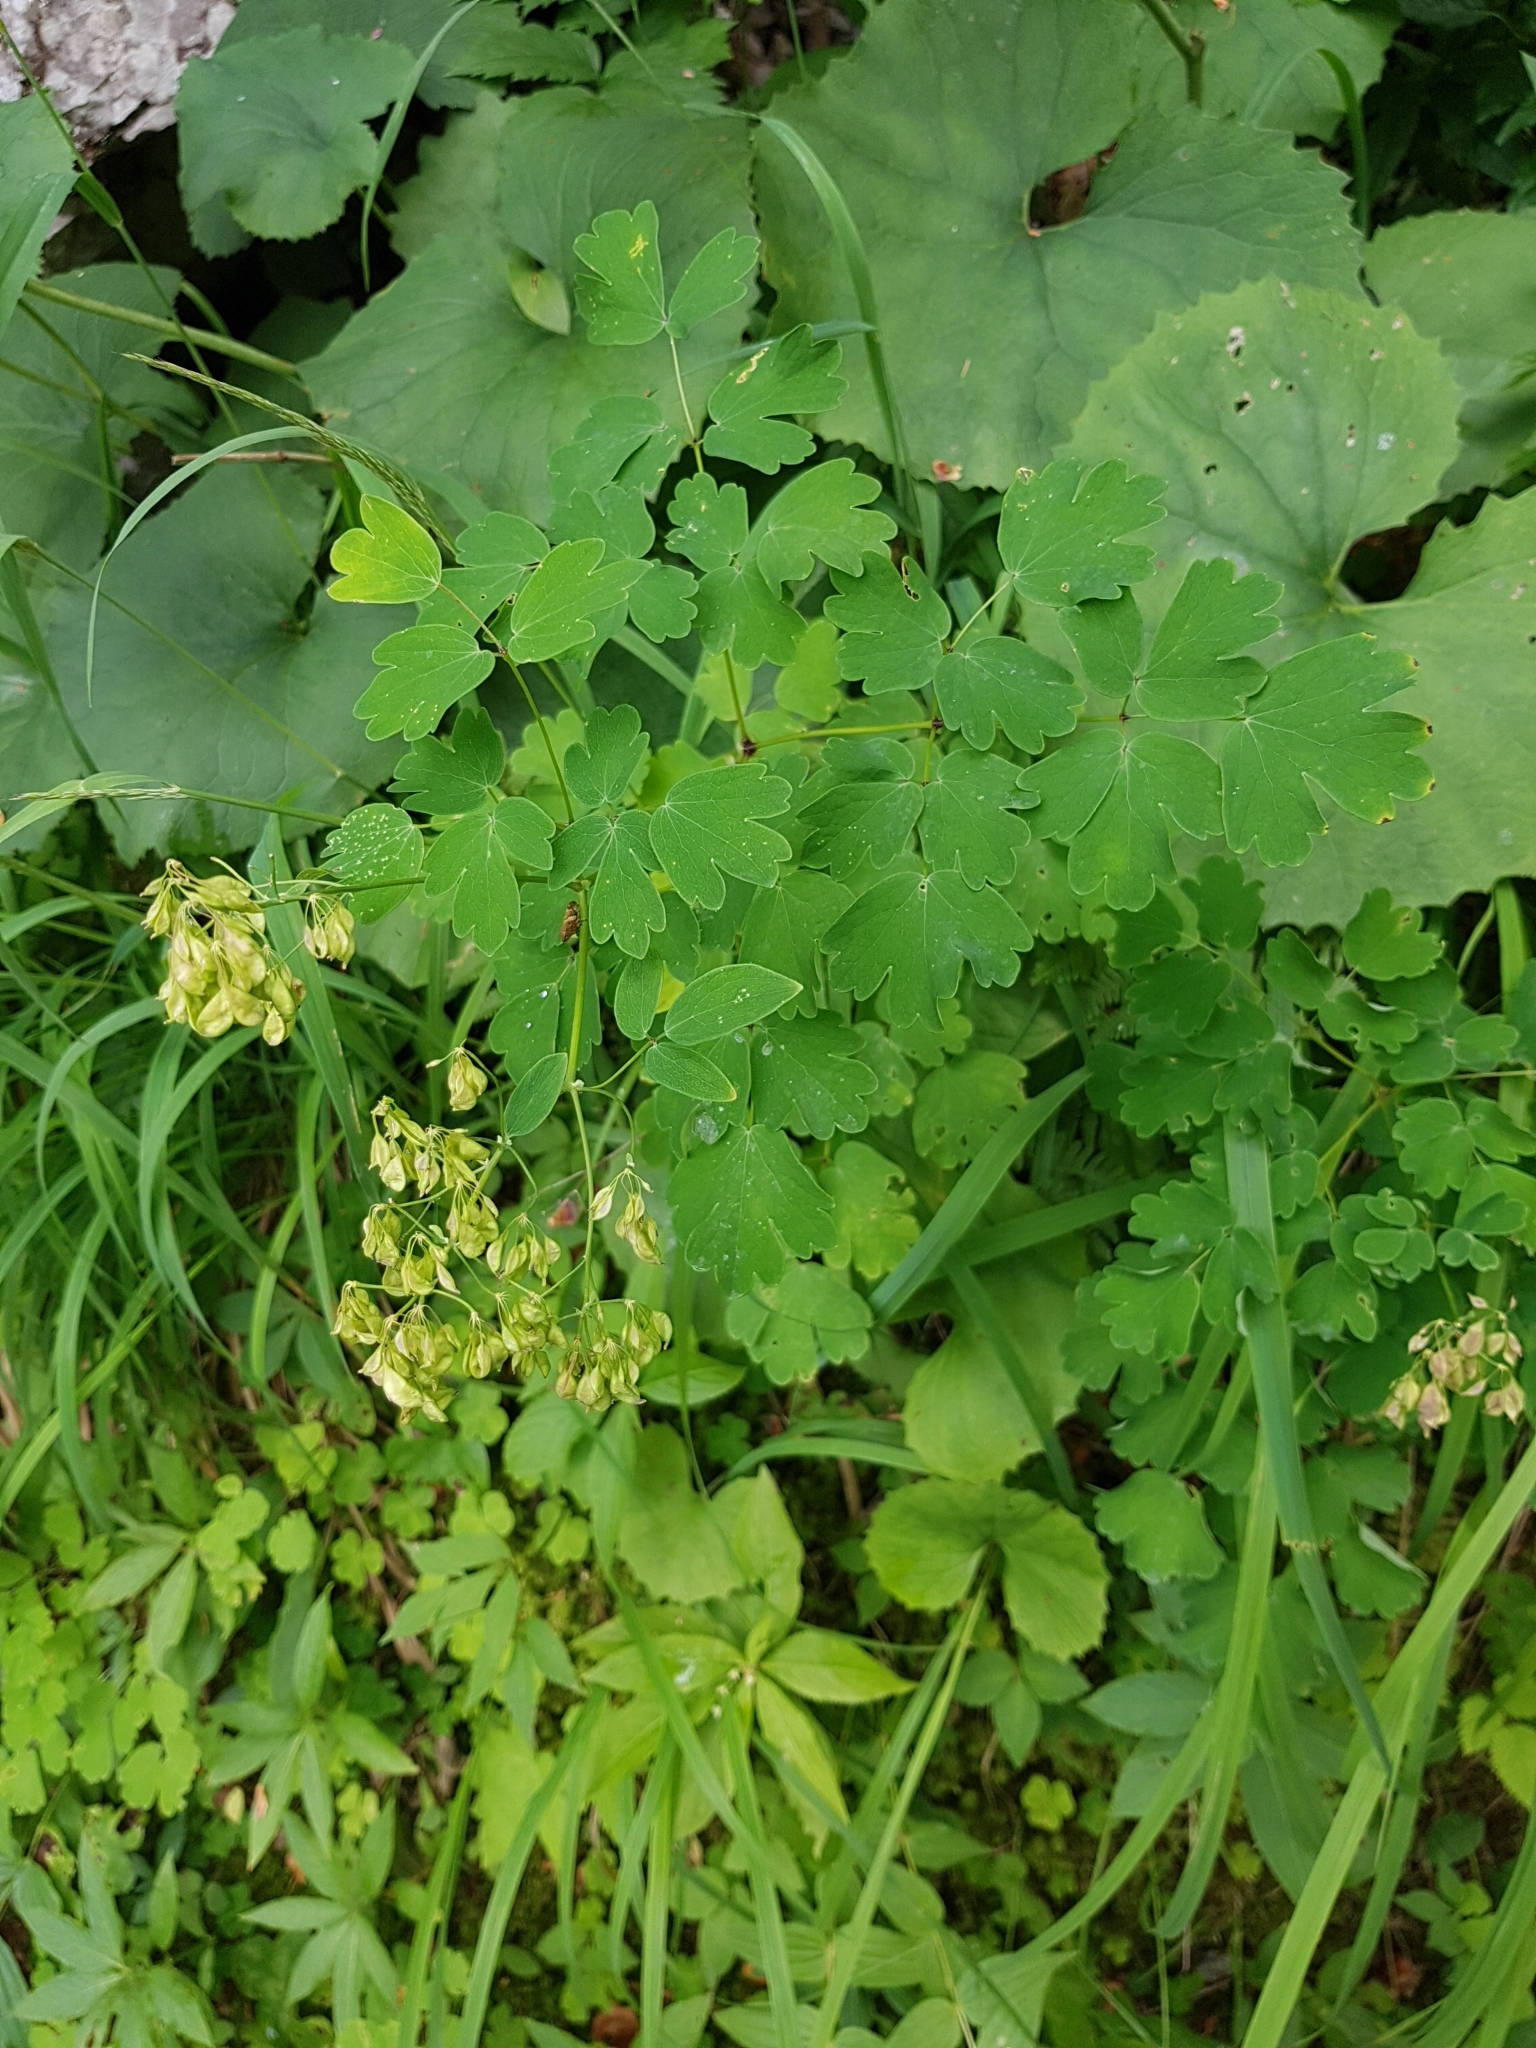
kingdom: Plantae
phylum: Tracheophyta
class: Magnoliopsida
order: Ranunculales
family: Ranunculaceae
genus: Thalictrum
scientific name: Thalictrum aquilegiifolium
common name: French meadow-rue
